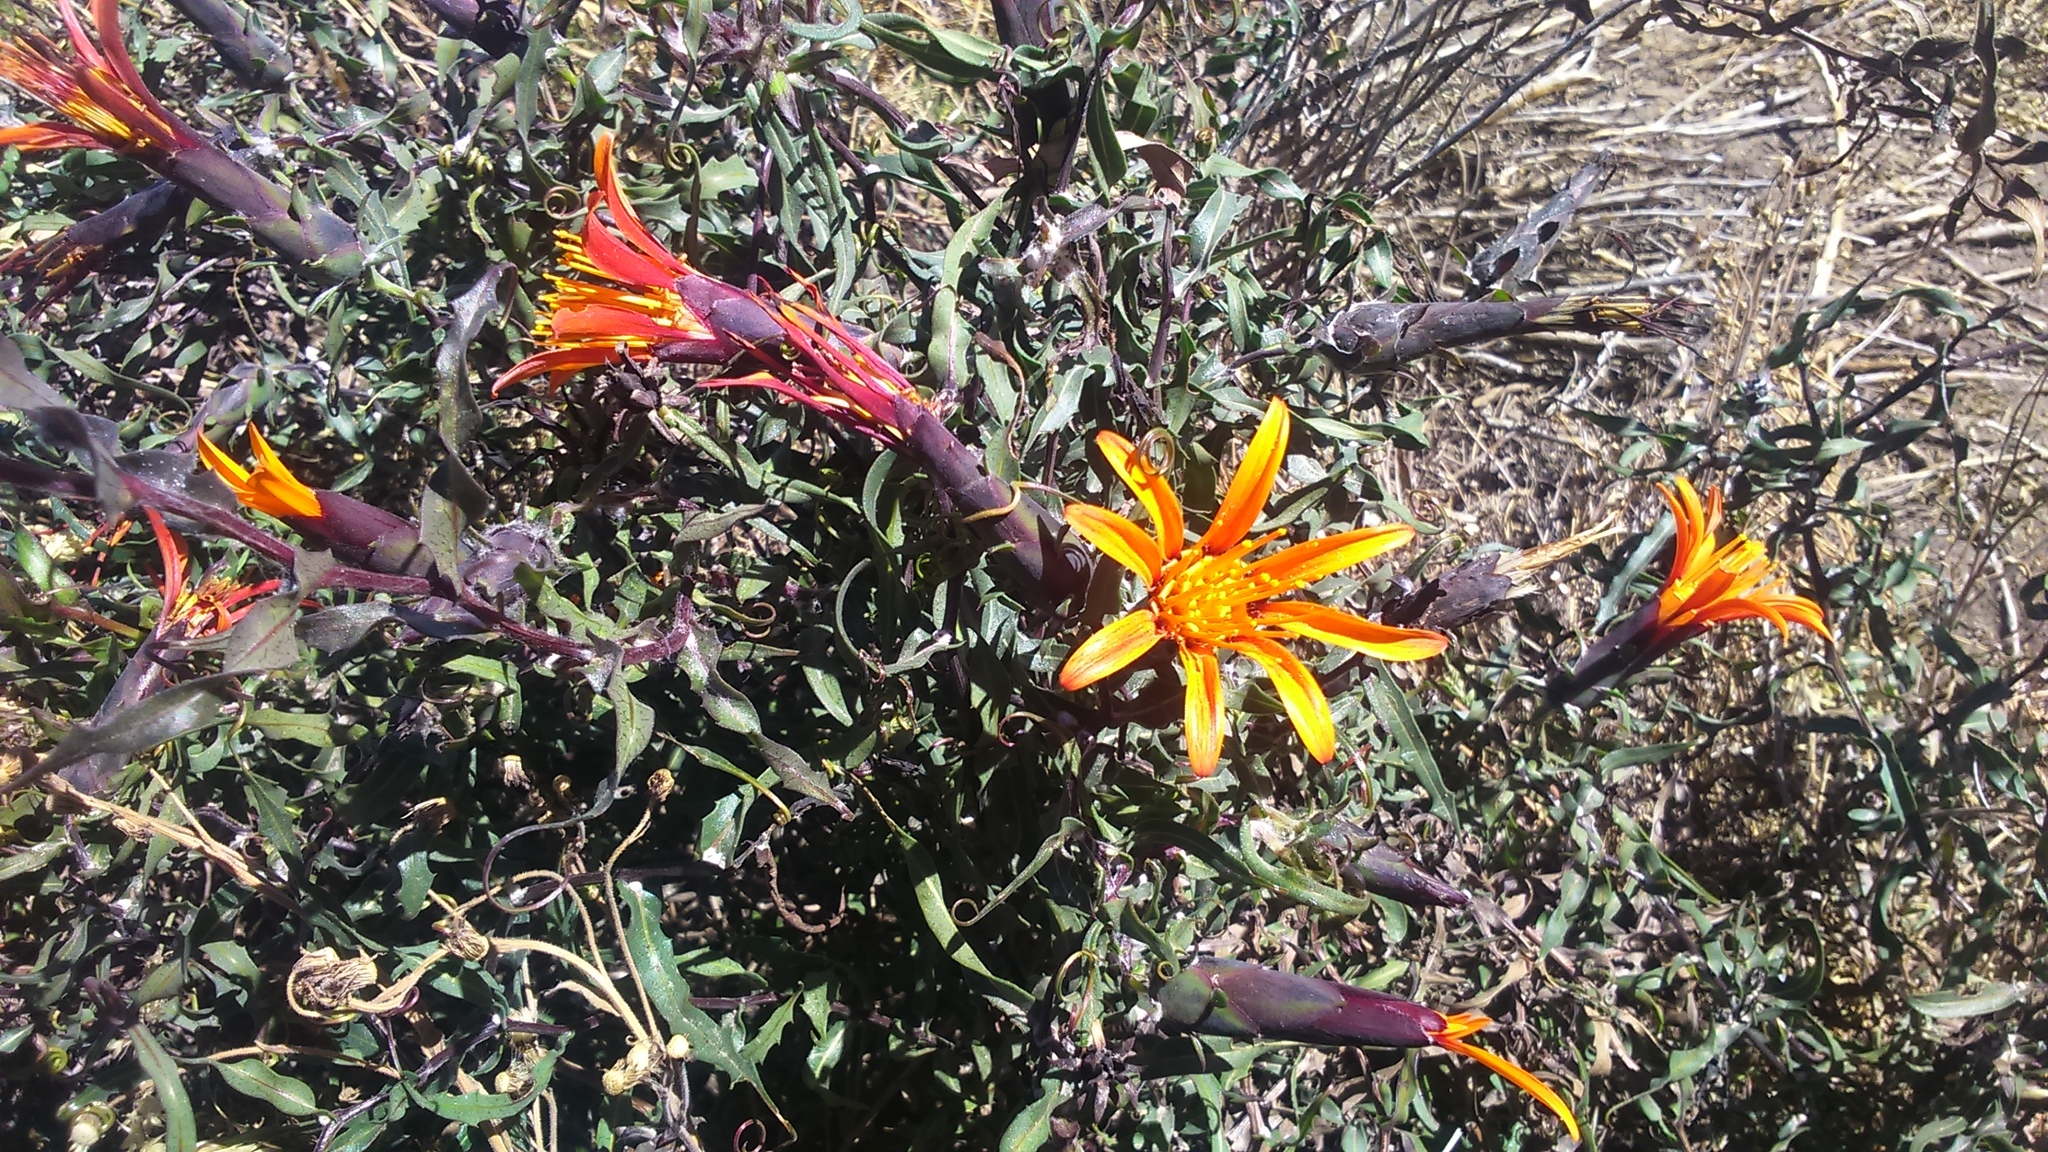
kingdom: Plantae
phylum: Tracheophyta
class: Magnoliopsida
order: Asterales
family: Asteraceae
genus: Mutisia
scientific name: Mutisia lanigera
